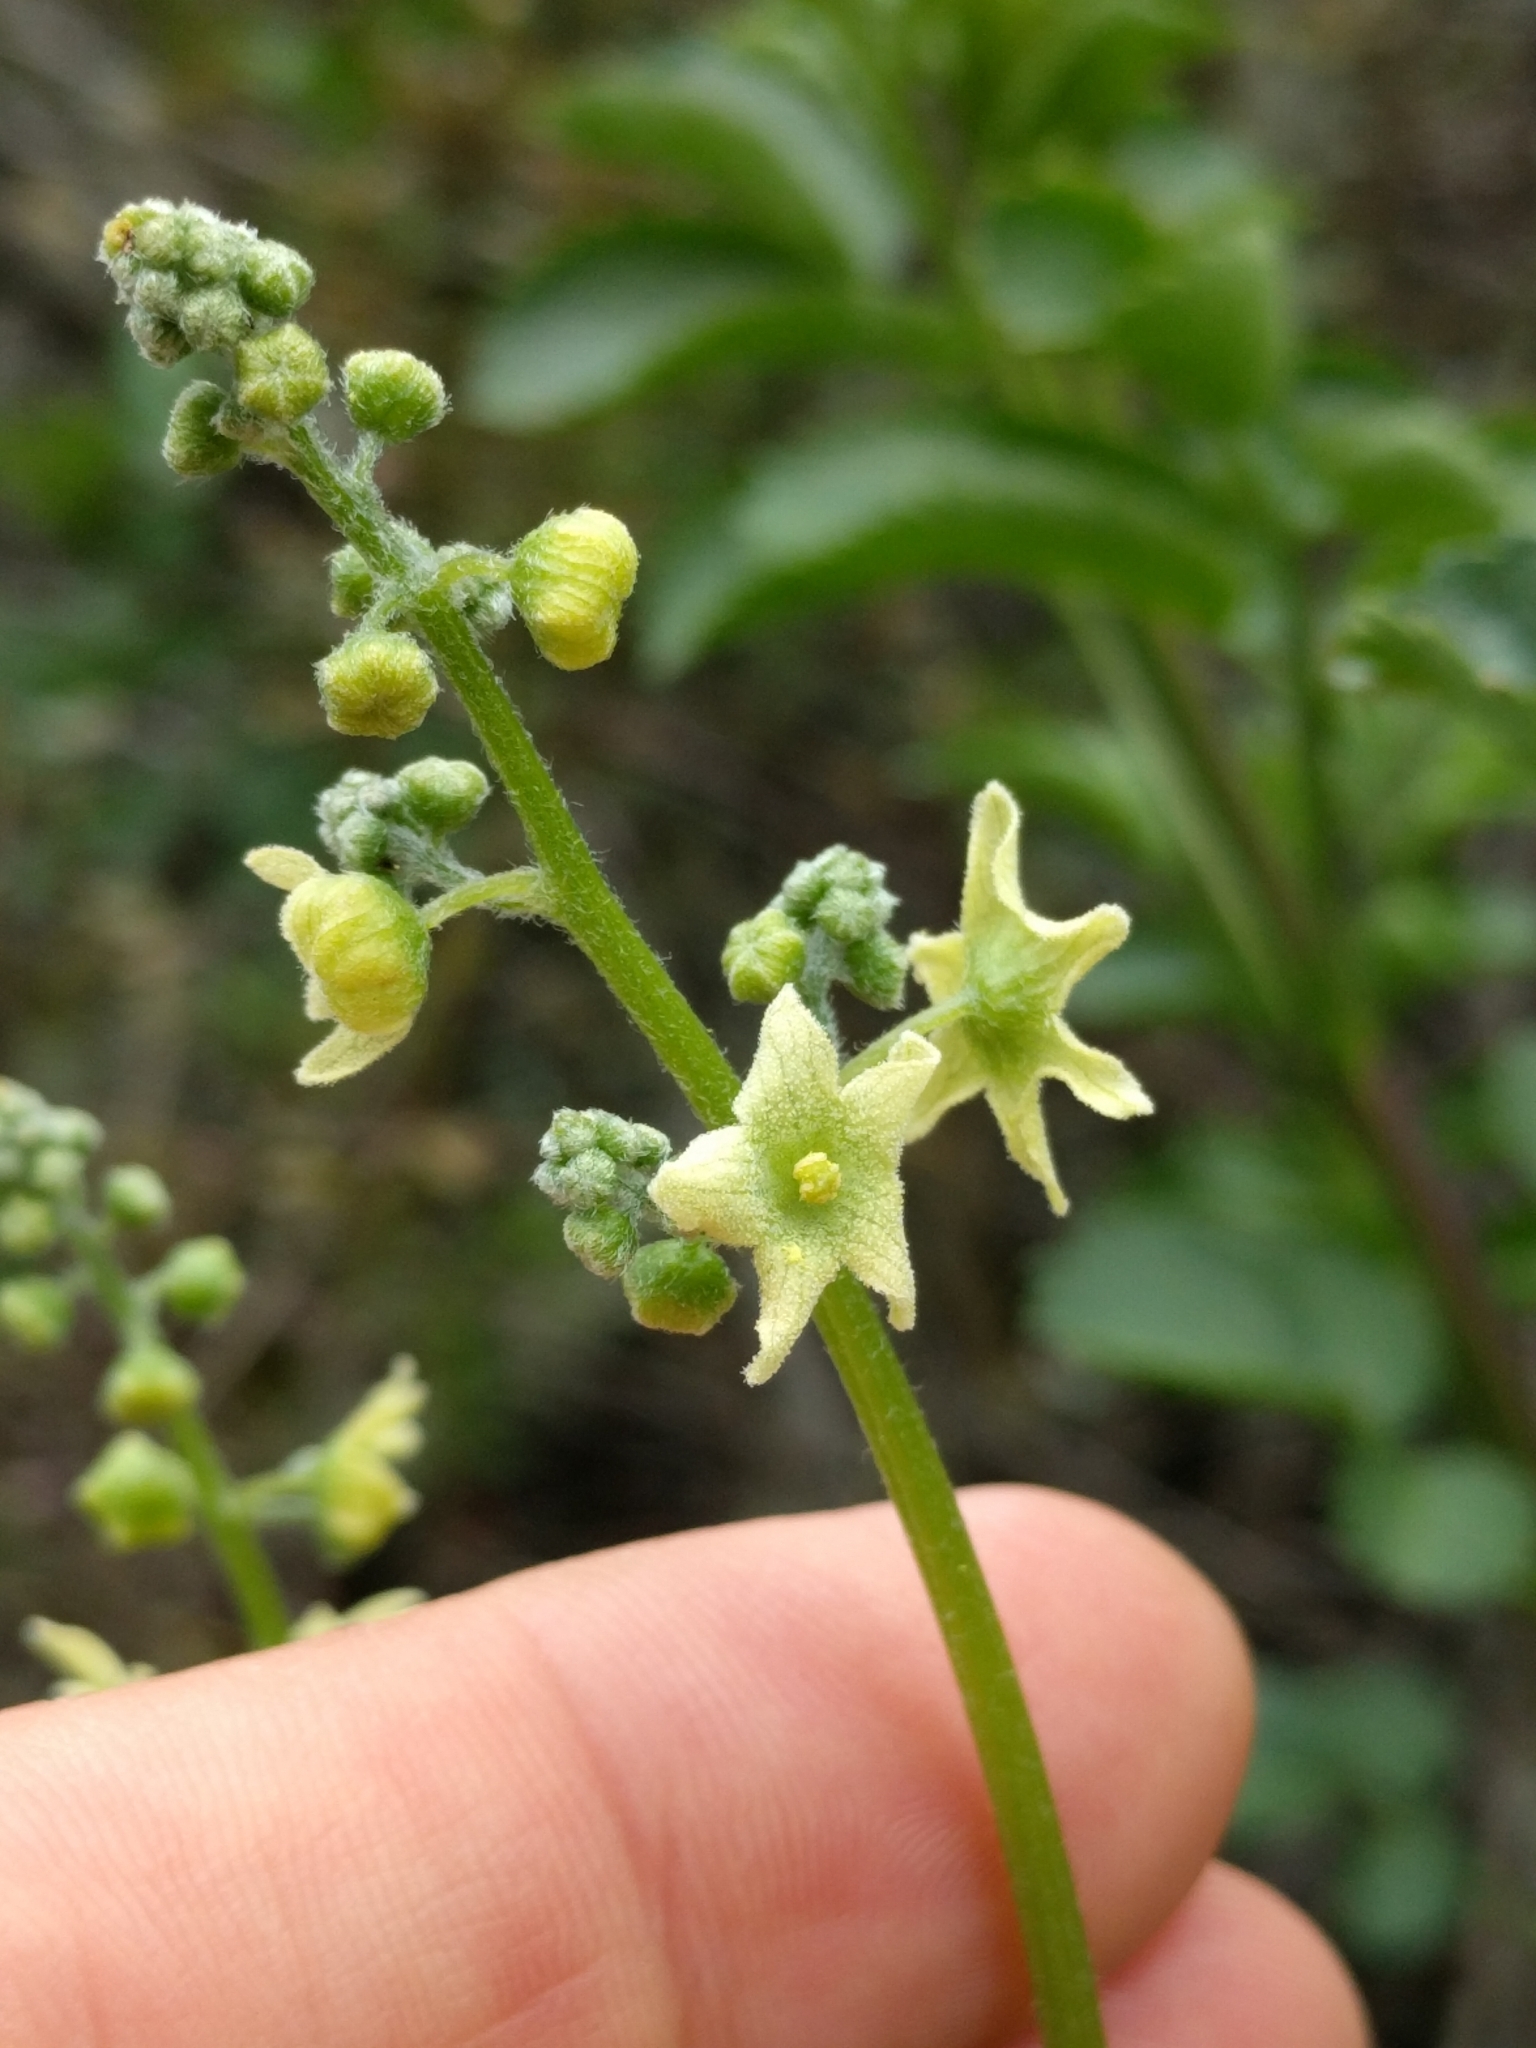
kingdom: Plantae
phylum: Tracheophyta
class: Magnoliopsida
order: Cucurbitales
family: Cucurbitaceae
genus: Marah
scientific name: Marah fabacea
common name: California manroot
